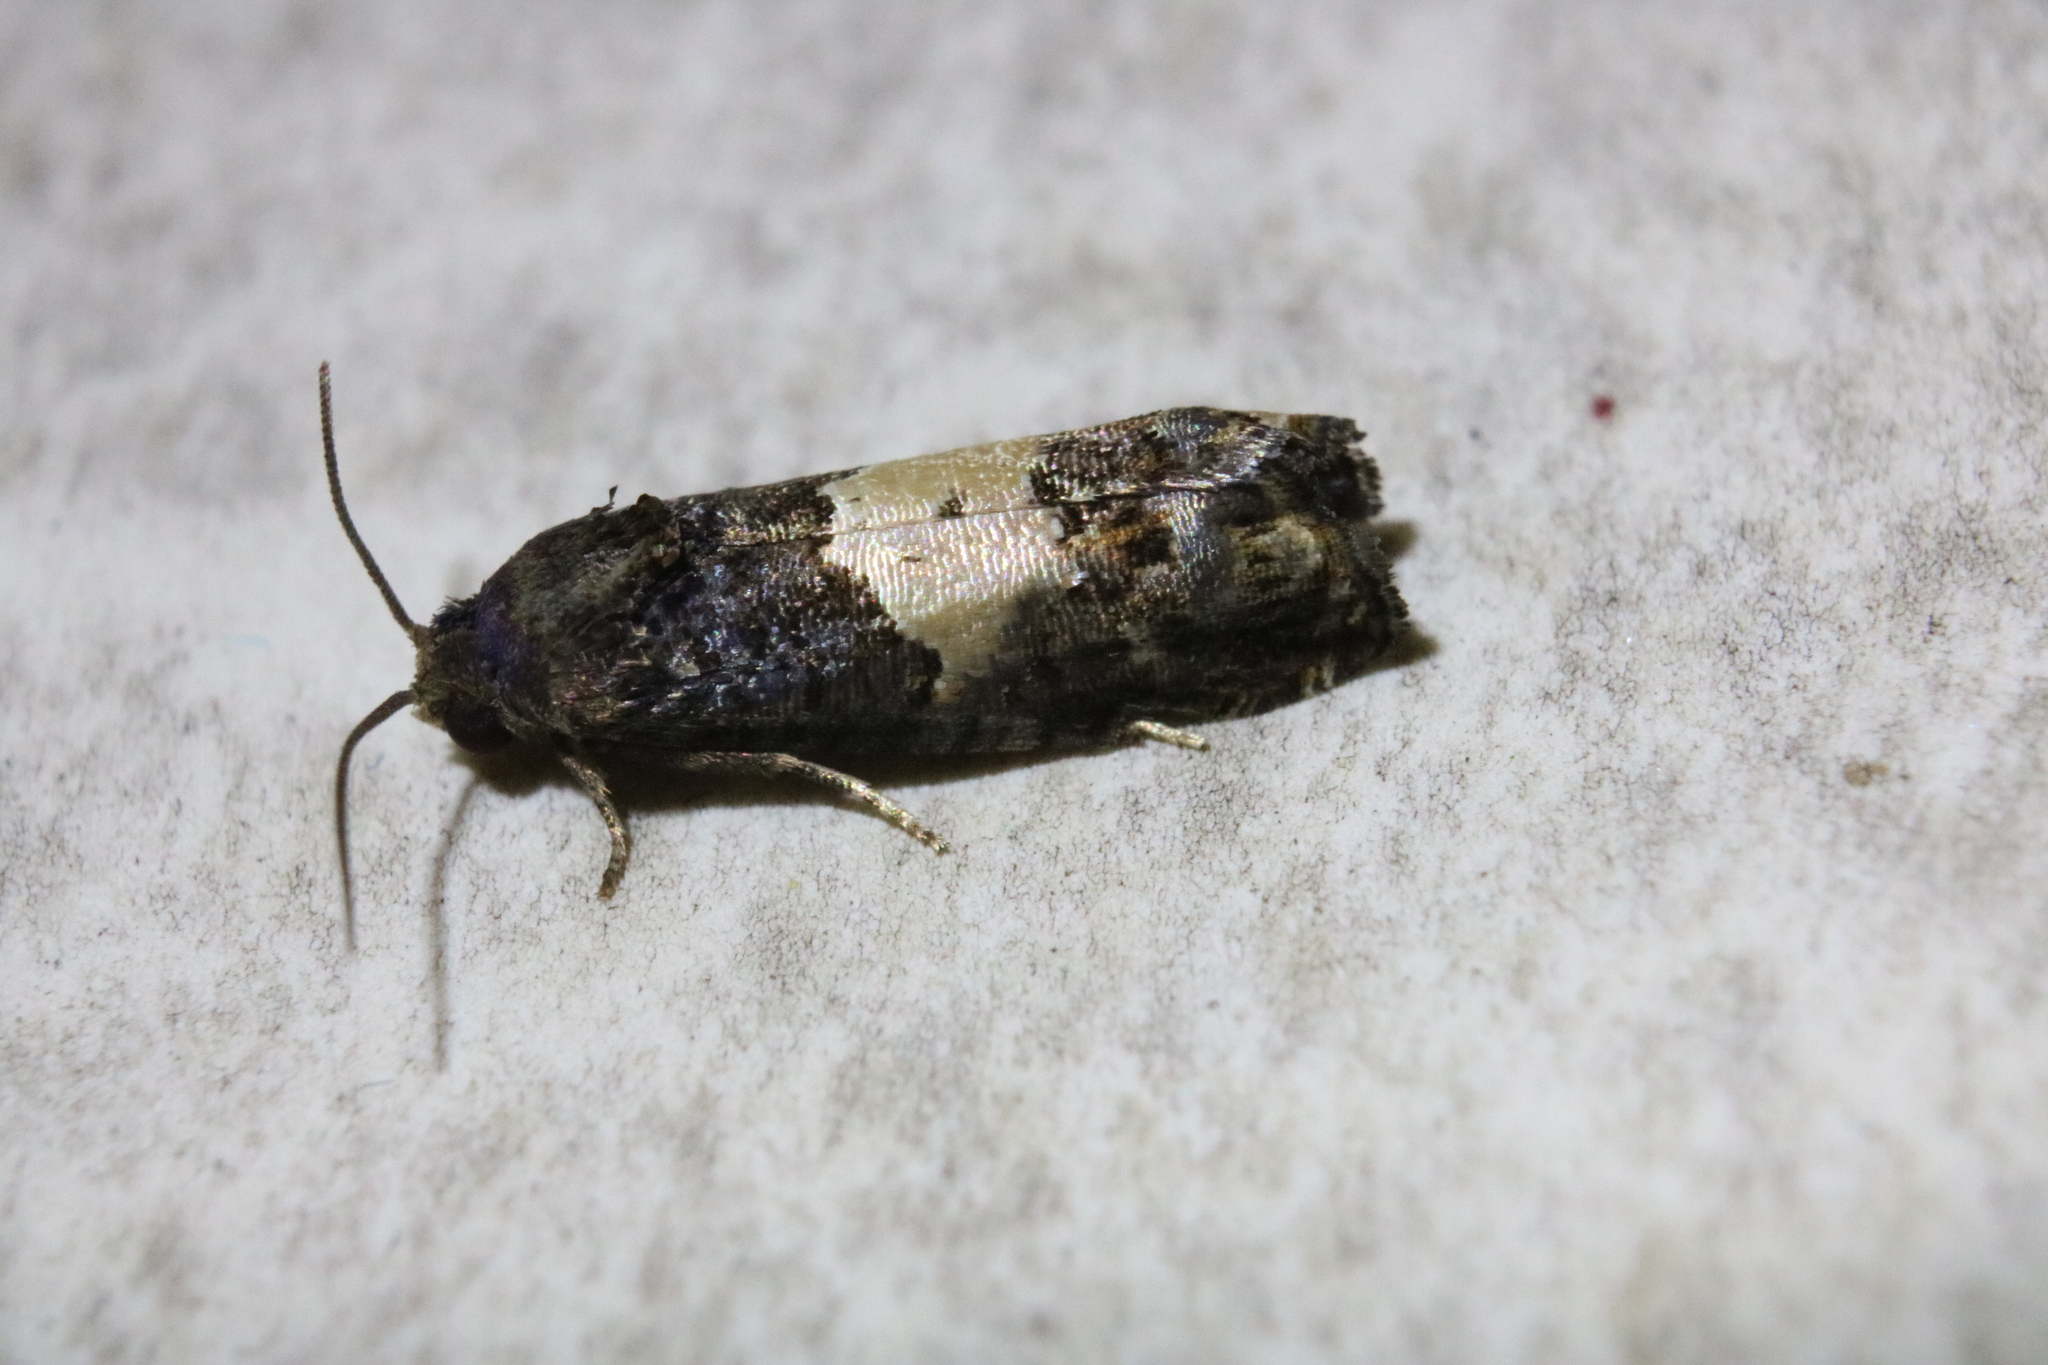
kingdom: Animalia
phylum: Arthropoda
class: Insecta
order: Lepidoptera
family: Tortricidae
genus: Epiblema
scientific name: Epiblema glenni
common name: Glenn's epiblema
